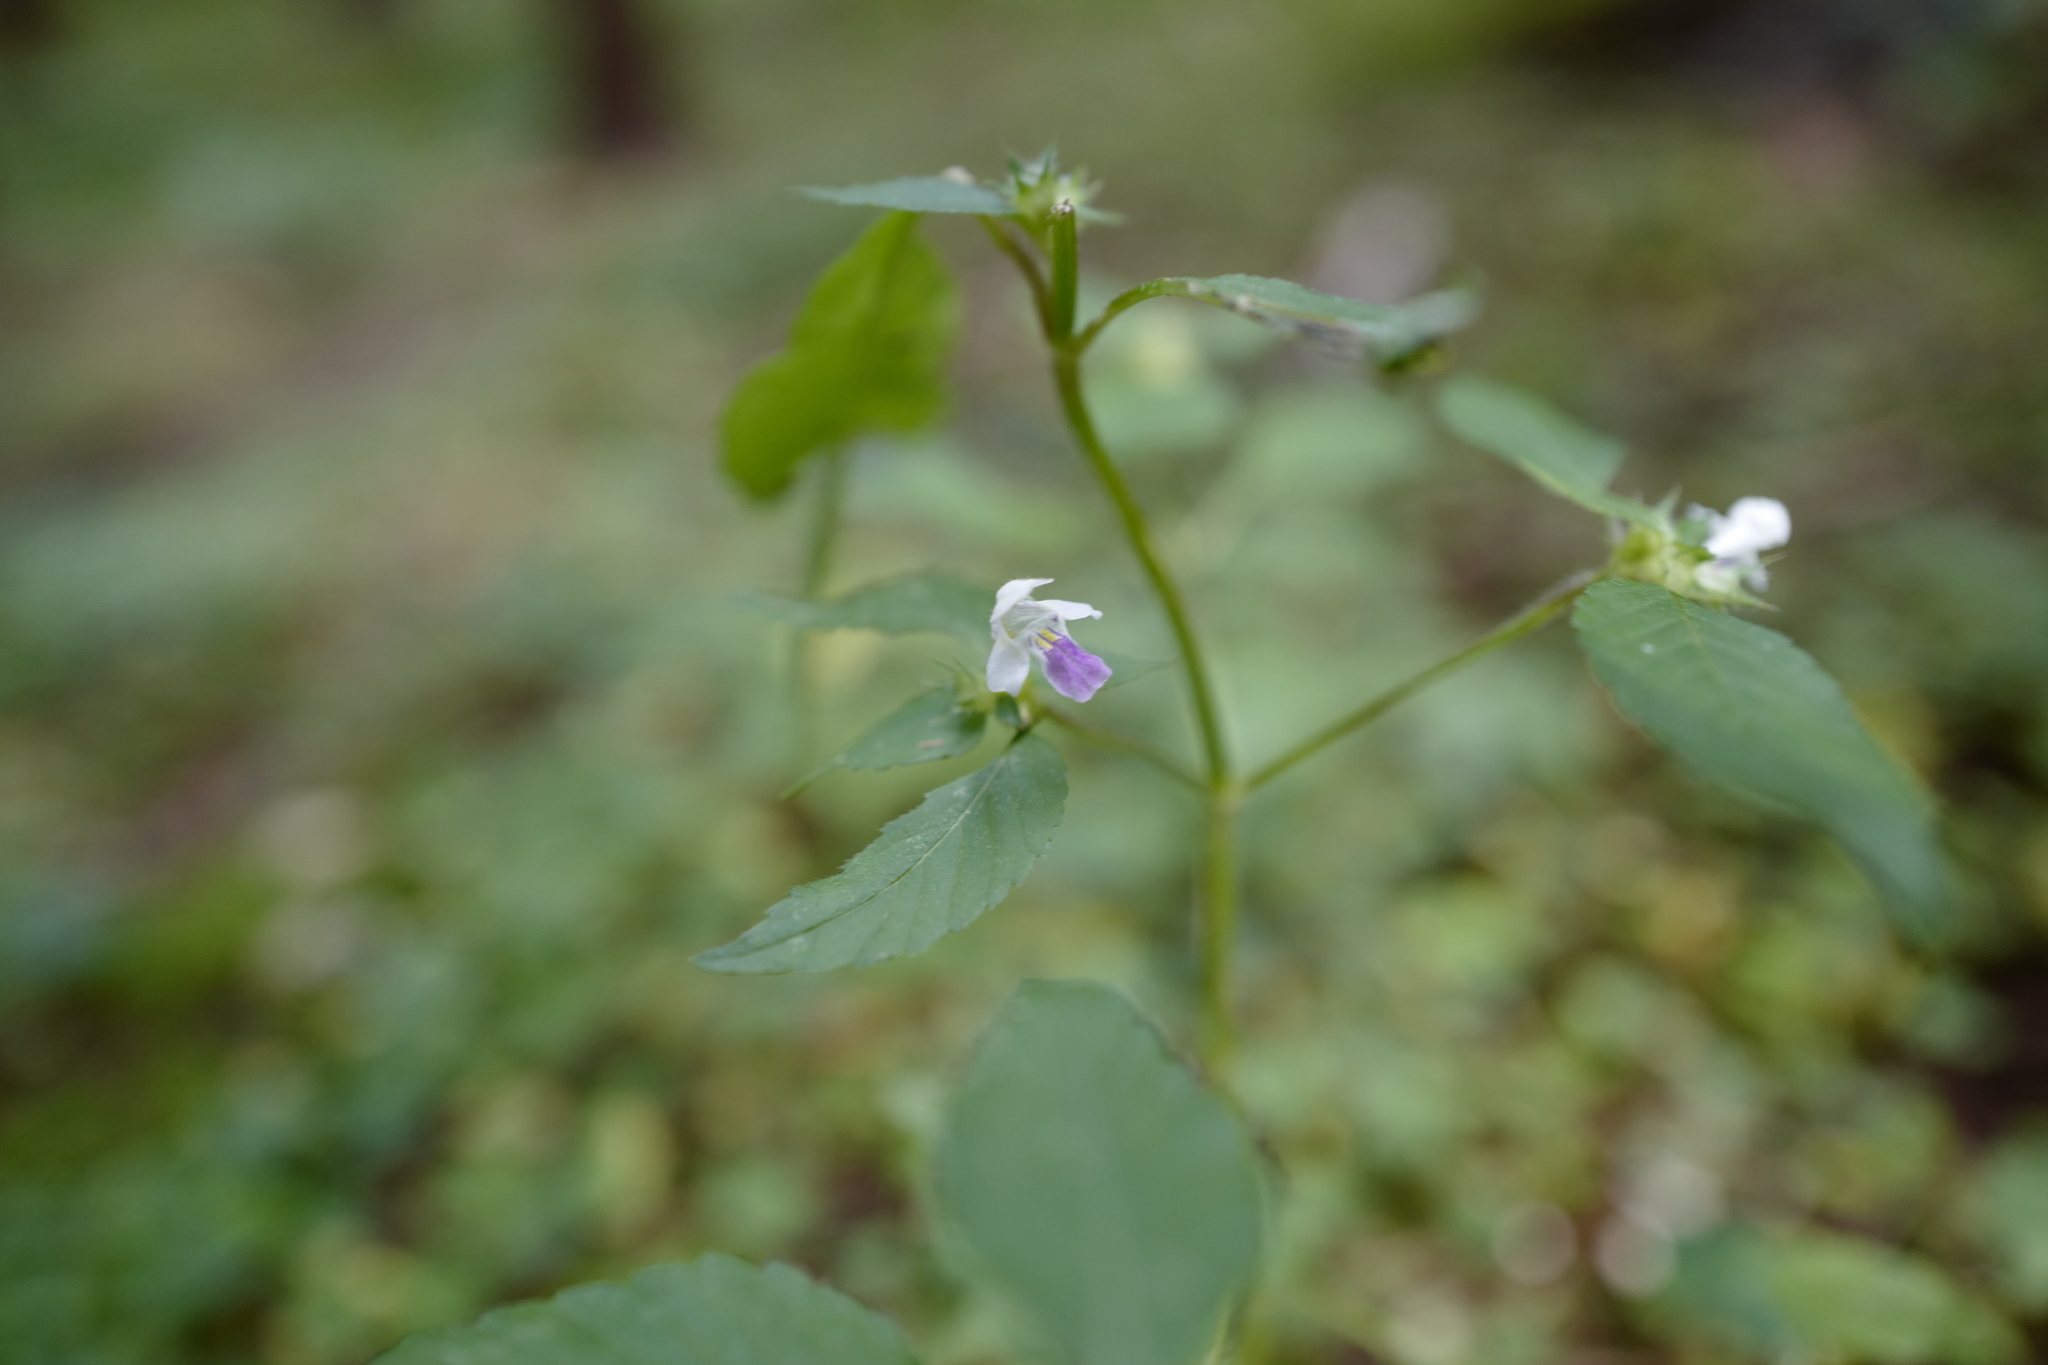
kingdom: Plantae
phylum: Tracheophyta
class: Magnoliopsida
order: Lamiales
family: Lamiaceae
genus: Galeopsis
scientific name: Galeopsis speciosa
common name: Large-flowered hemp-nettle
